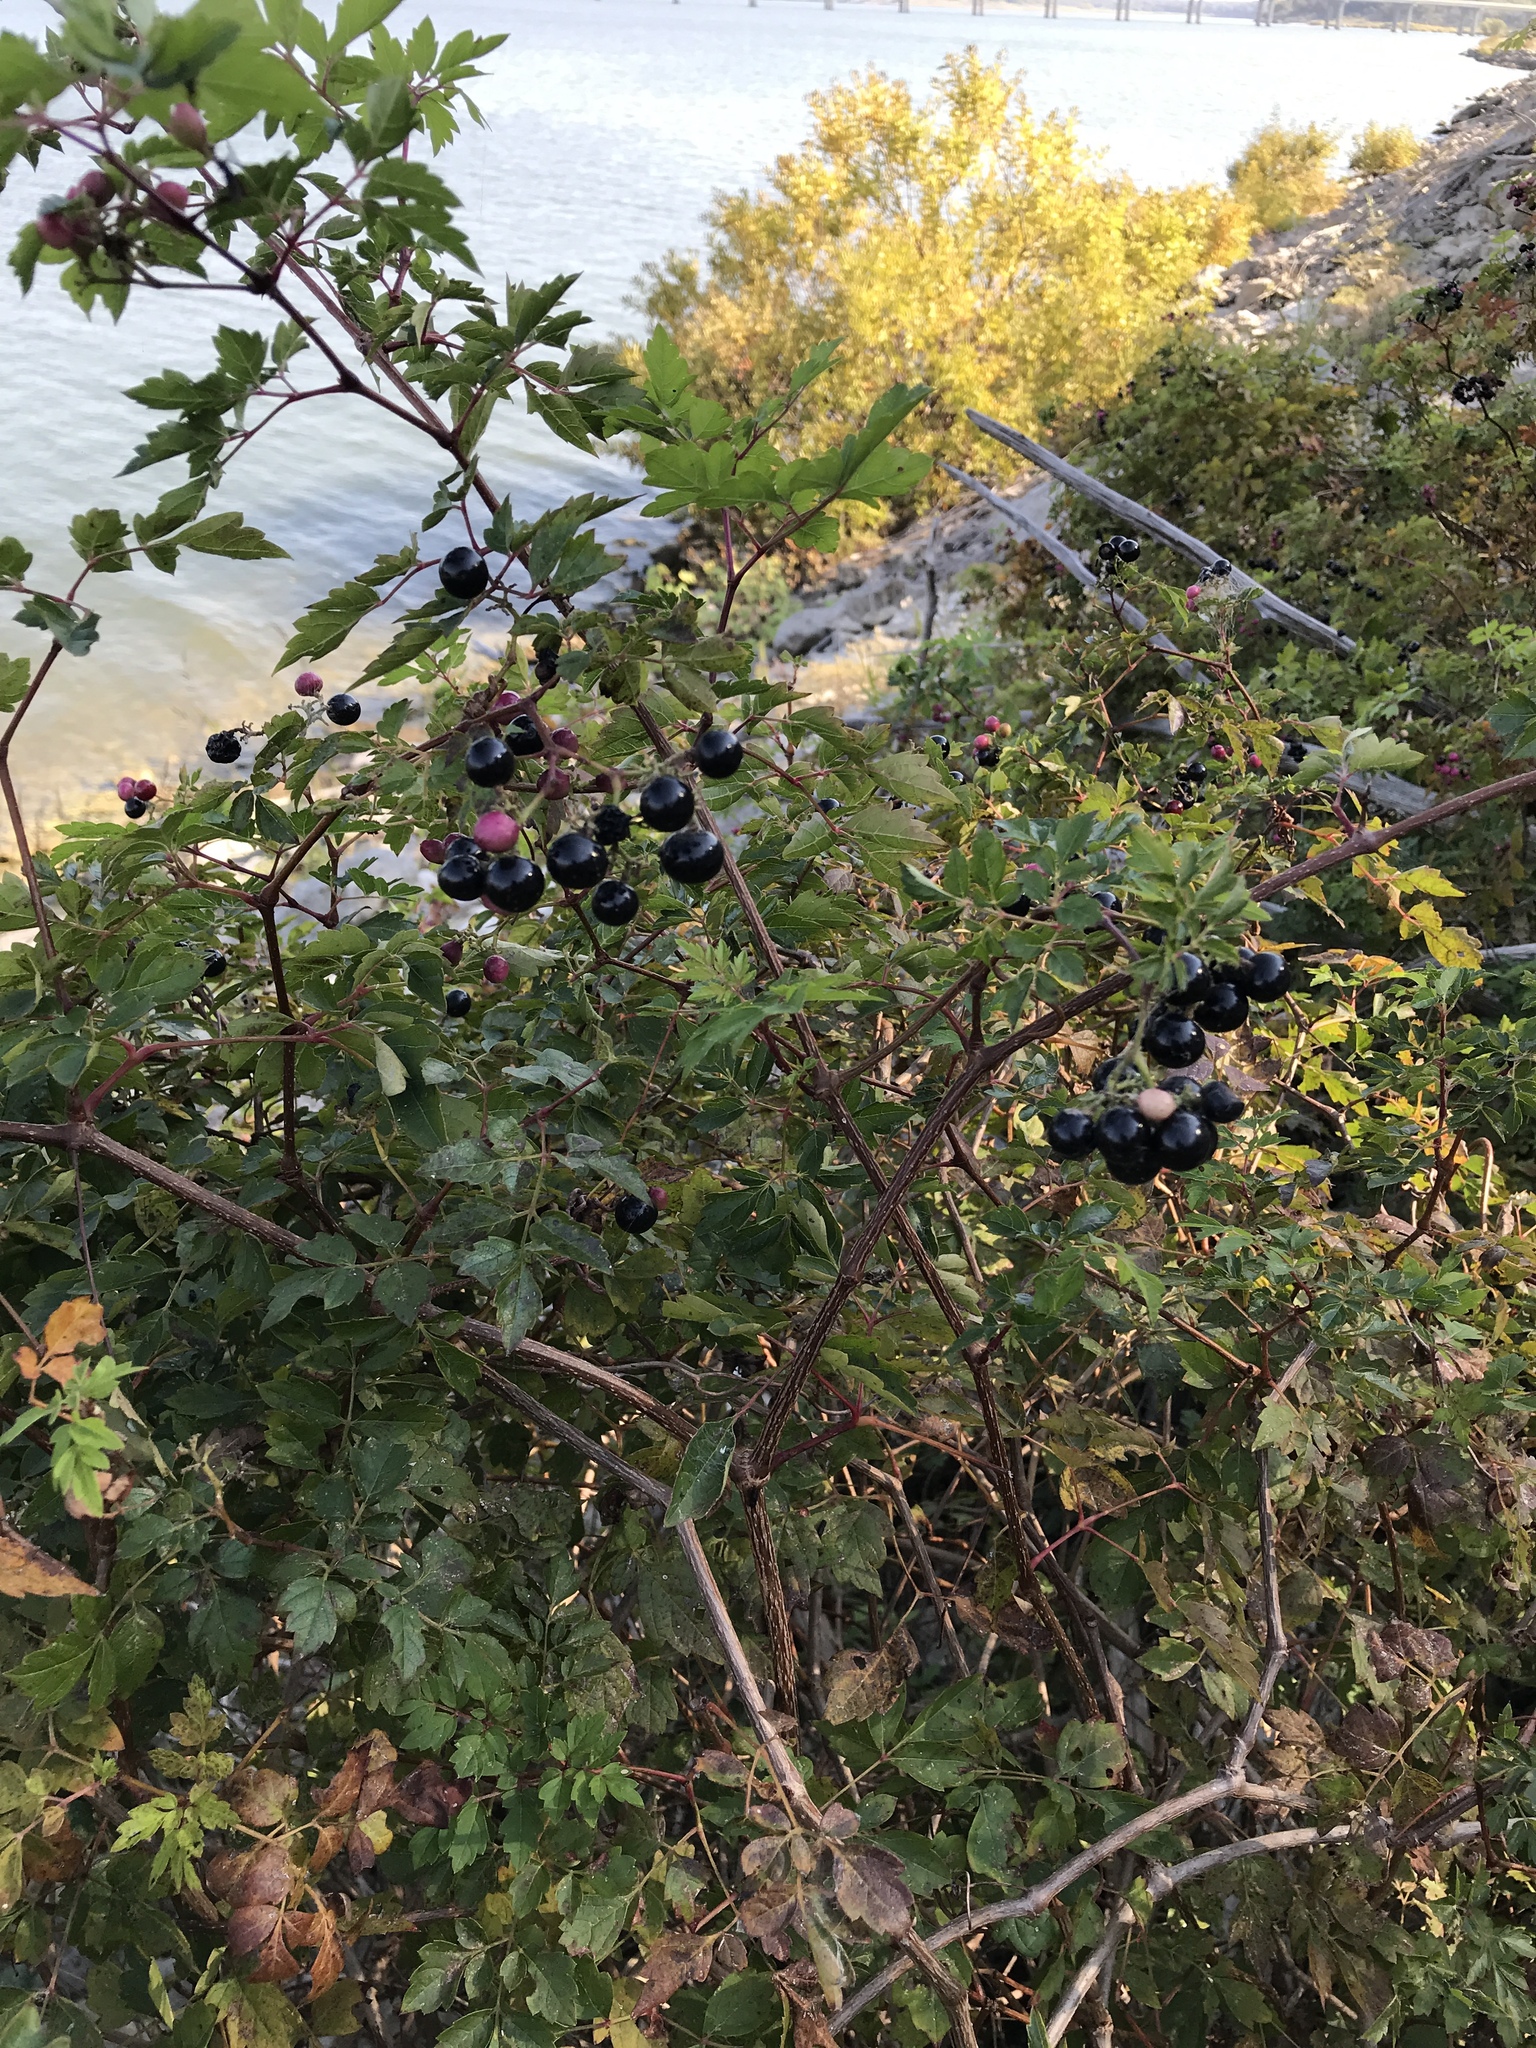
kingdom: Plantae
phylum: Tracheophyta
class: Magnoliopsida
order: Vitales
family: Vitaceae
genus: Nekemias
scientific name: Nekemias arborea
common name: Peppervine
